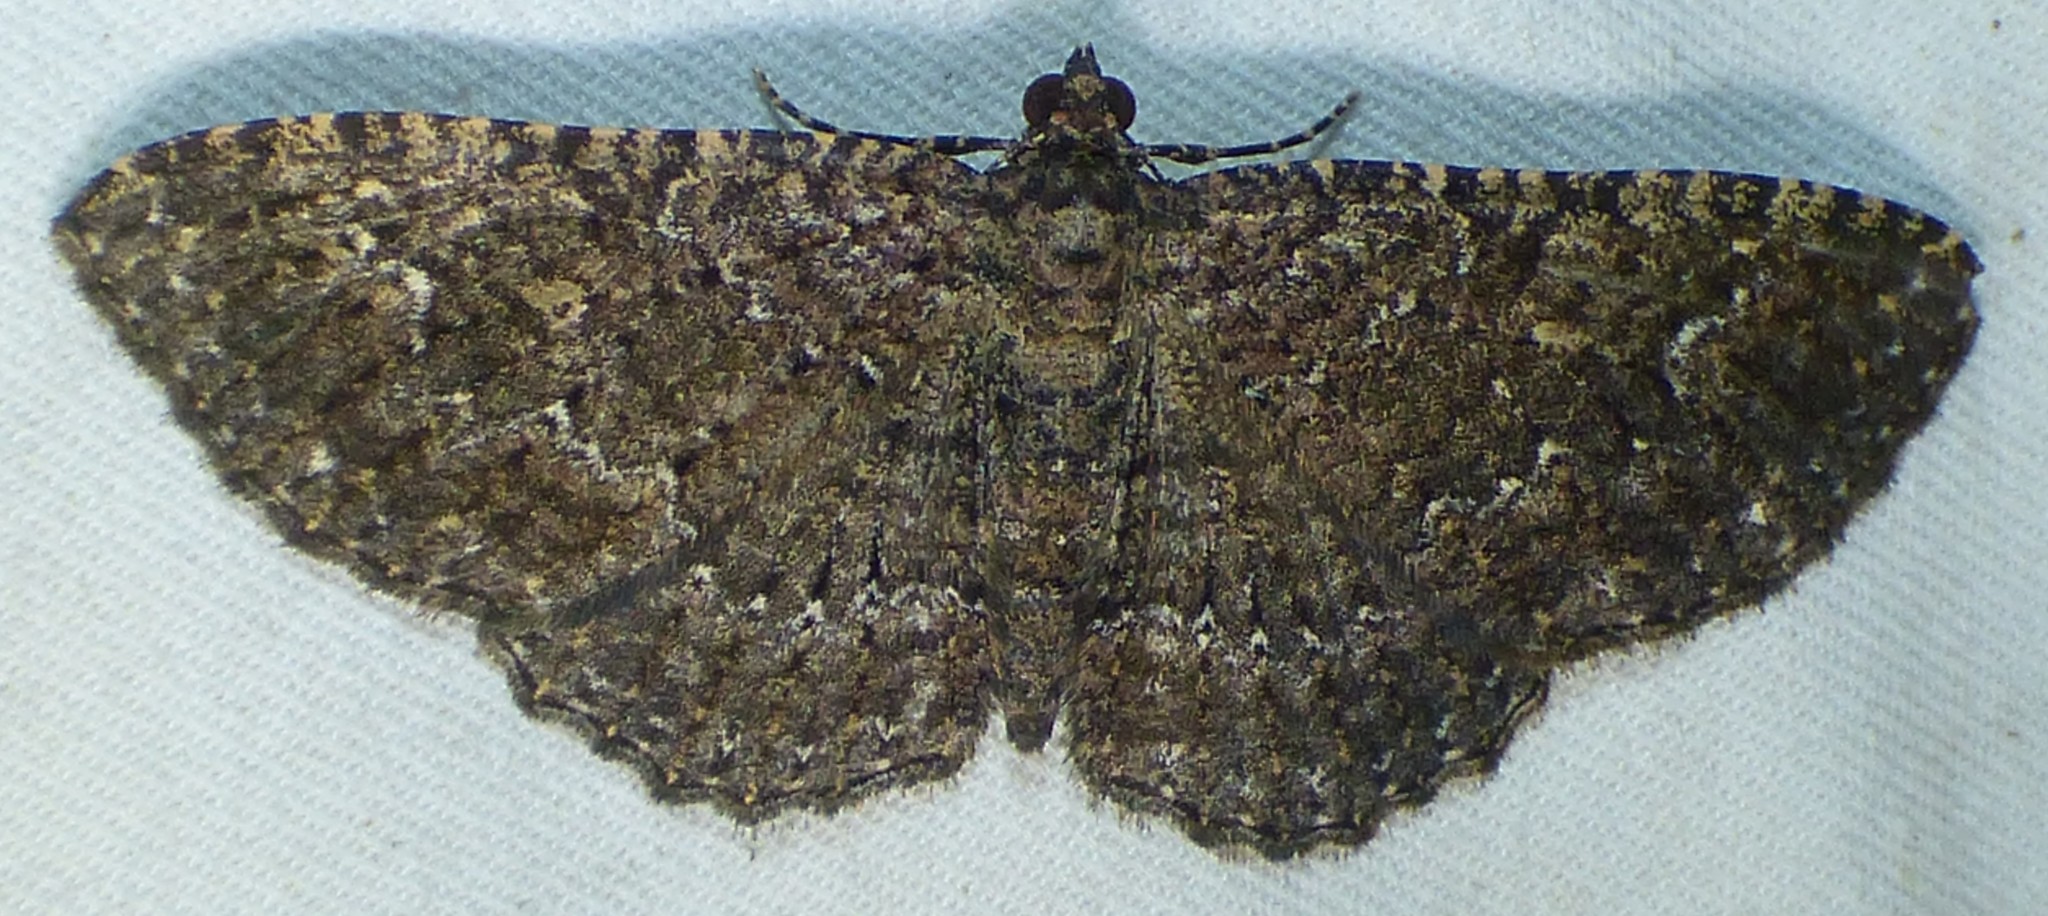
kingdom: Animalia
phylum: Arthropoda
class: Insecta
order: Lepidoptera
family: Geometridae
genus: Disclisioprocta
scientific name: Disclisioprocta stellata
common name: Somber carpet
